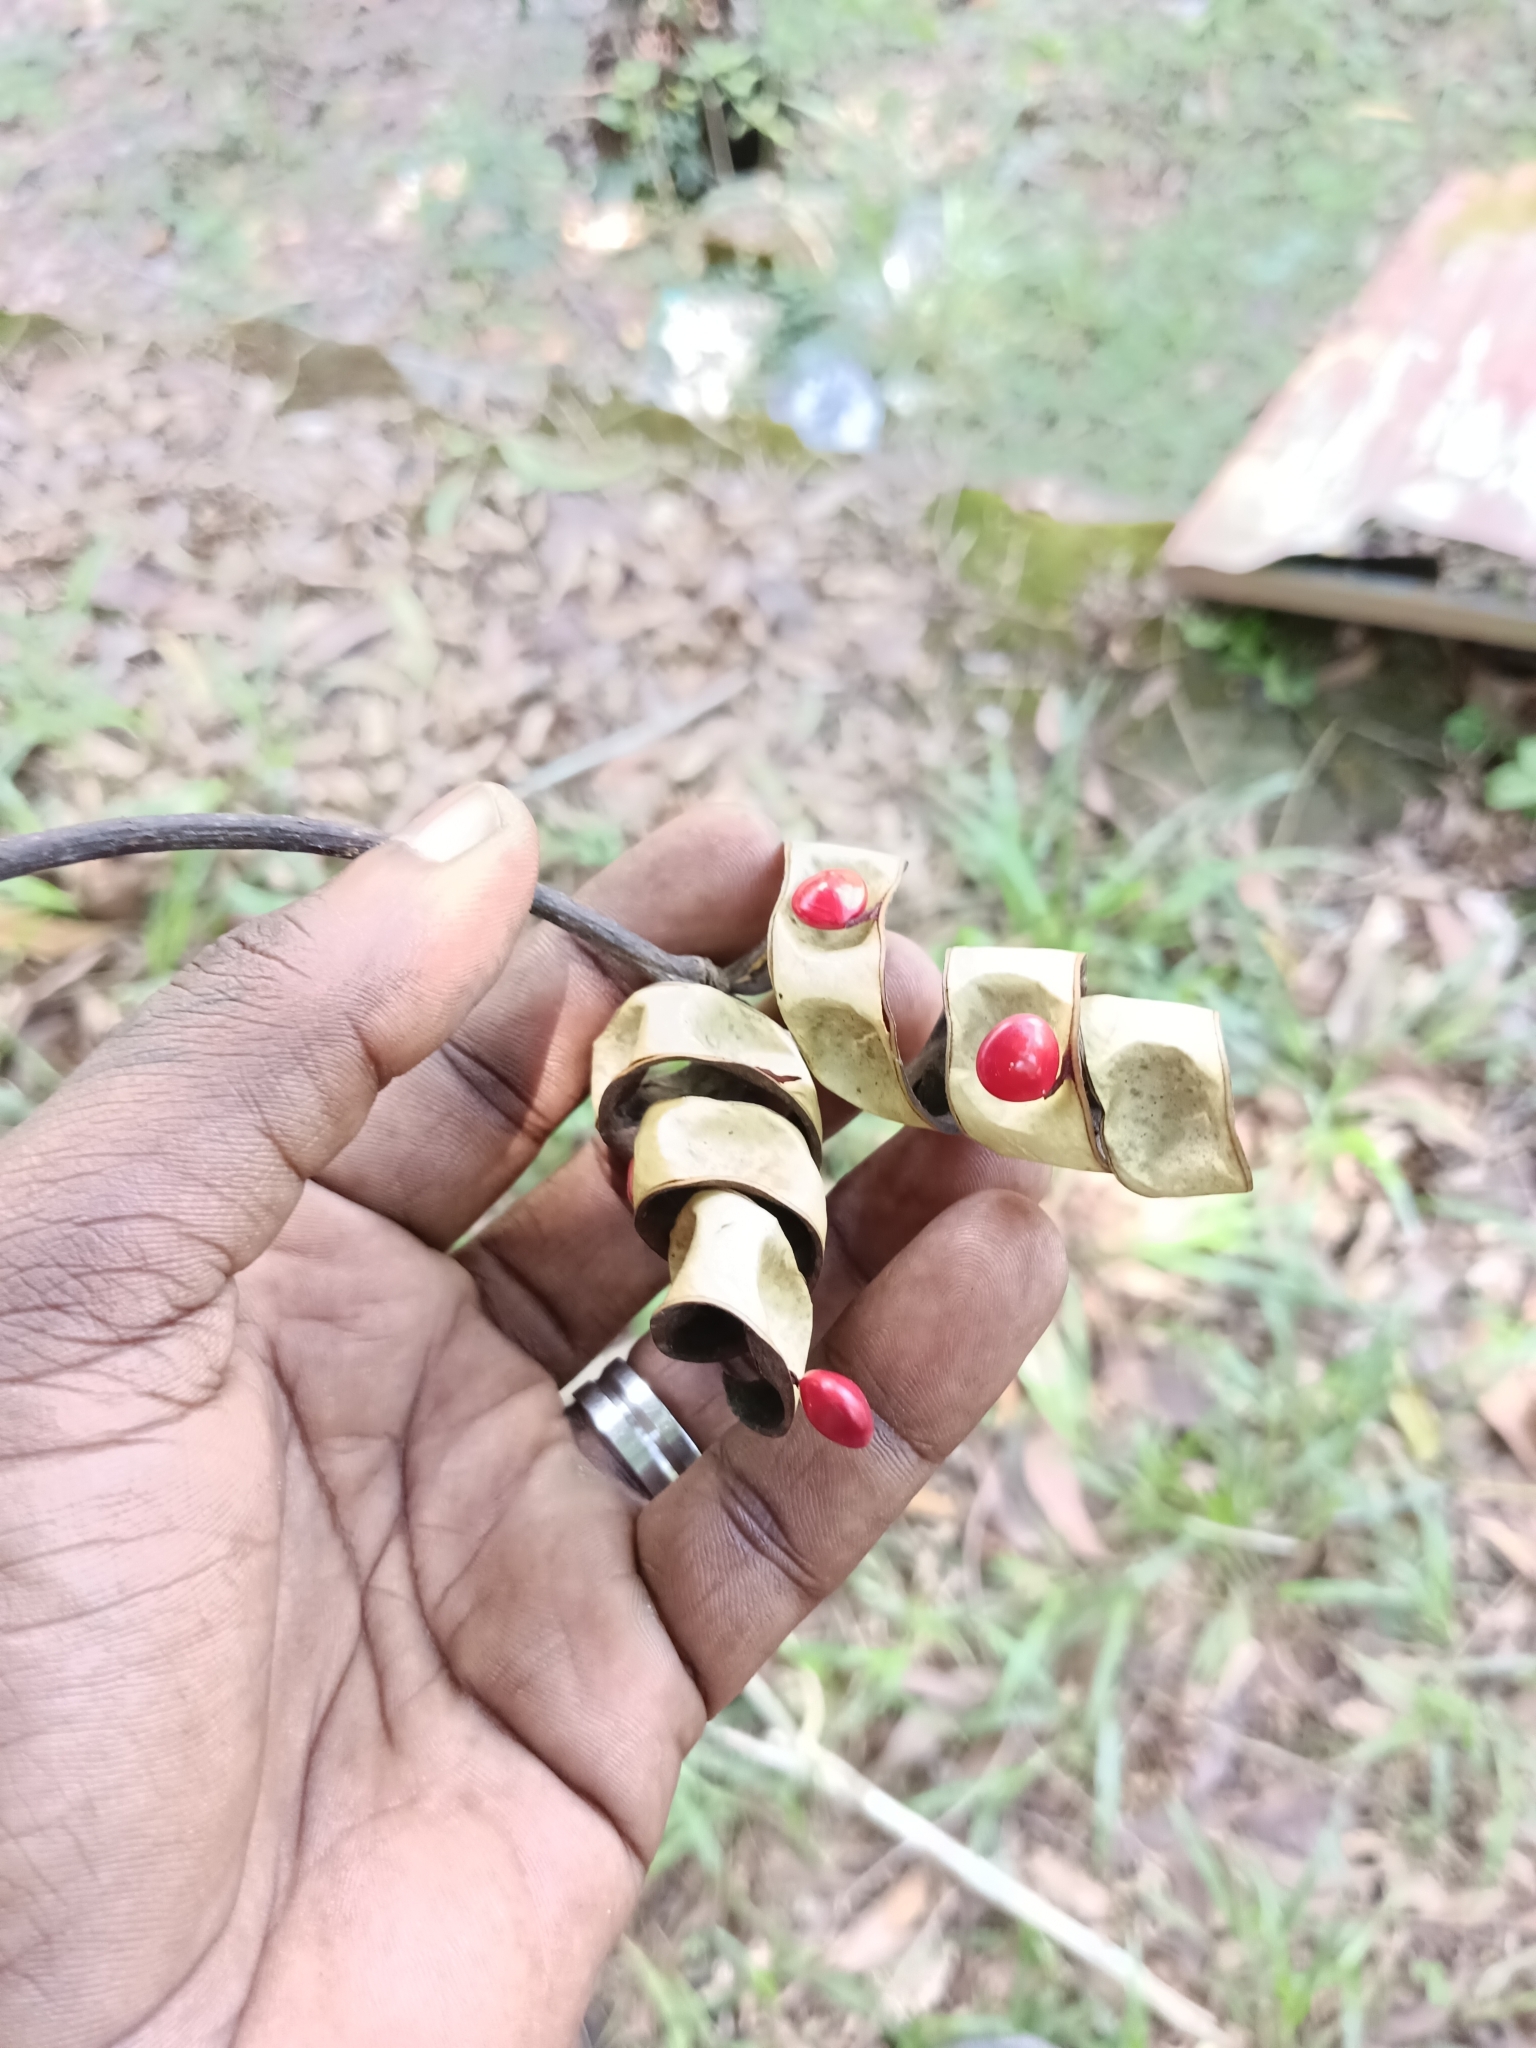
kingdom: Plantae
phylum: Tracheophyta
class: Magnoliopsida
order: Fabales
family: Fabaceae
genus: Adenanthera
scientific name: Adenanthera pavonina
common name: Red beadtree
